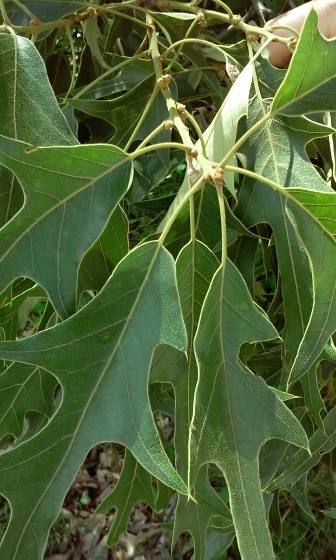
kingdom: Plantae
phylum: Tracheophyta
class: Magnoliopsida
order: Fagales
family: Fagaceae
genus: Quercus
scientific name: Quercus falcata
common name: Southern red oak
